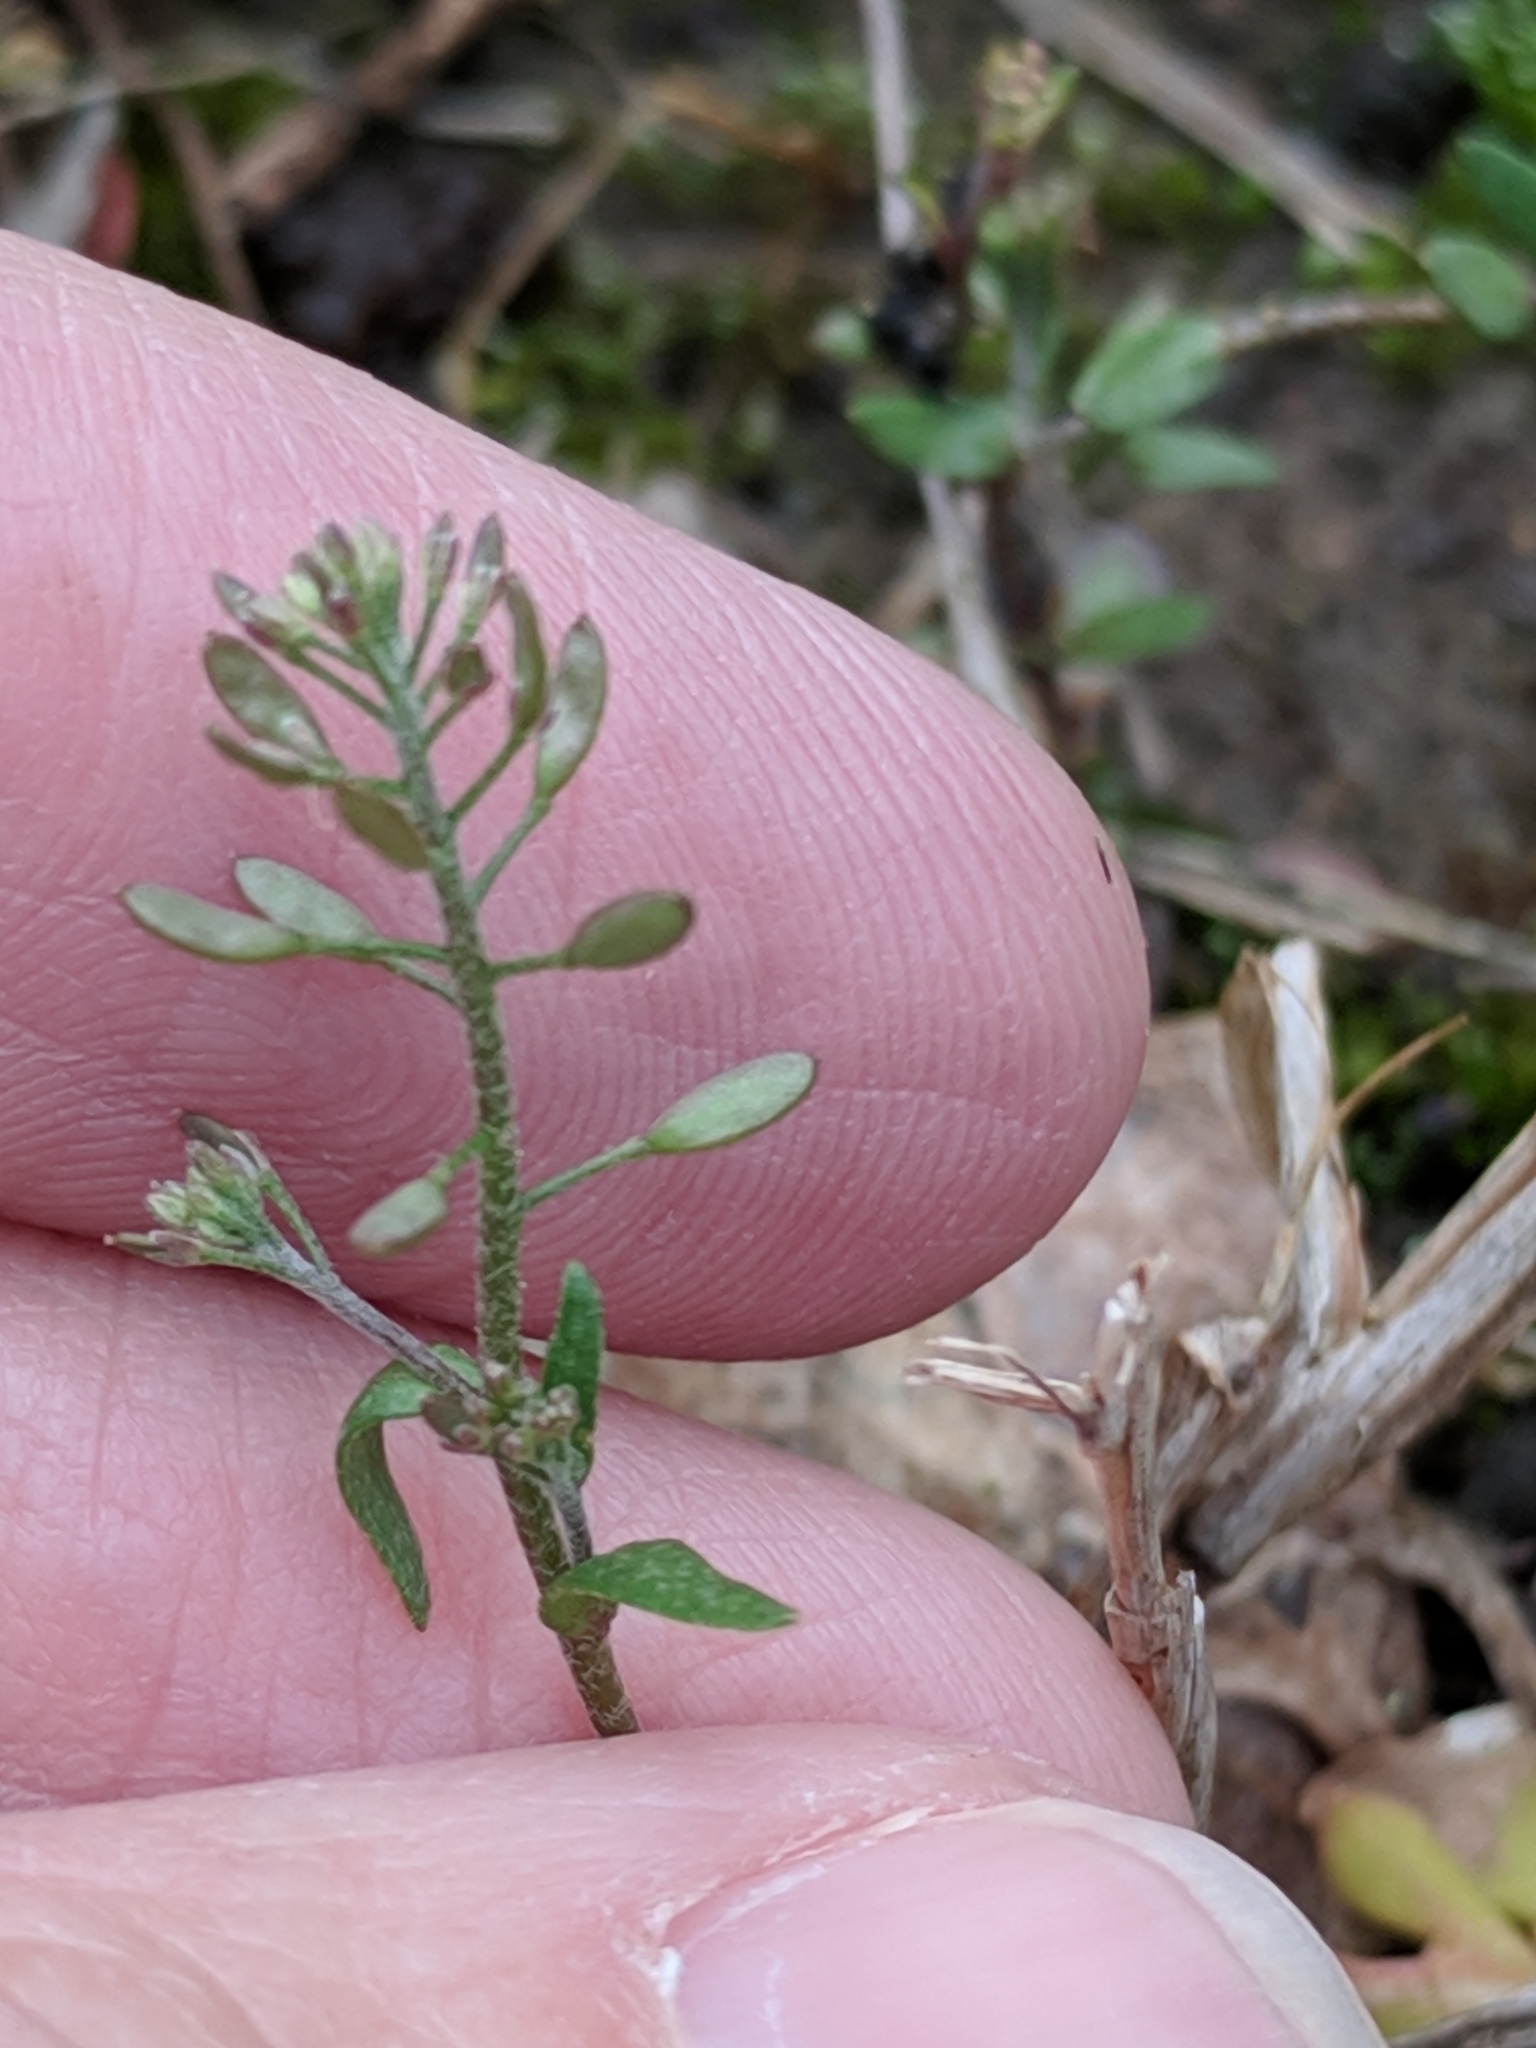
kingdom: Plantae
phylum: Tracheophyta
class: Magnoliopsida
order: Brassicales
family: Brassicaceae
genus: Abdra
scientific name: Abdra brachycarpa
